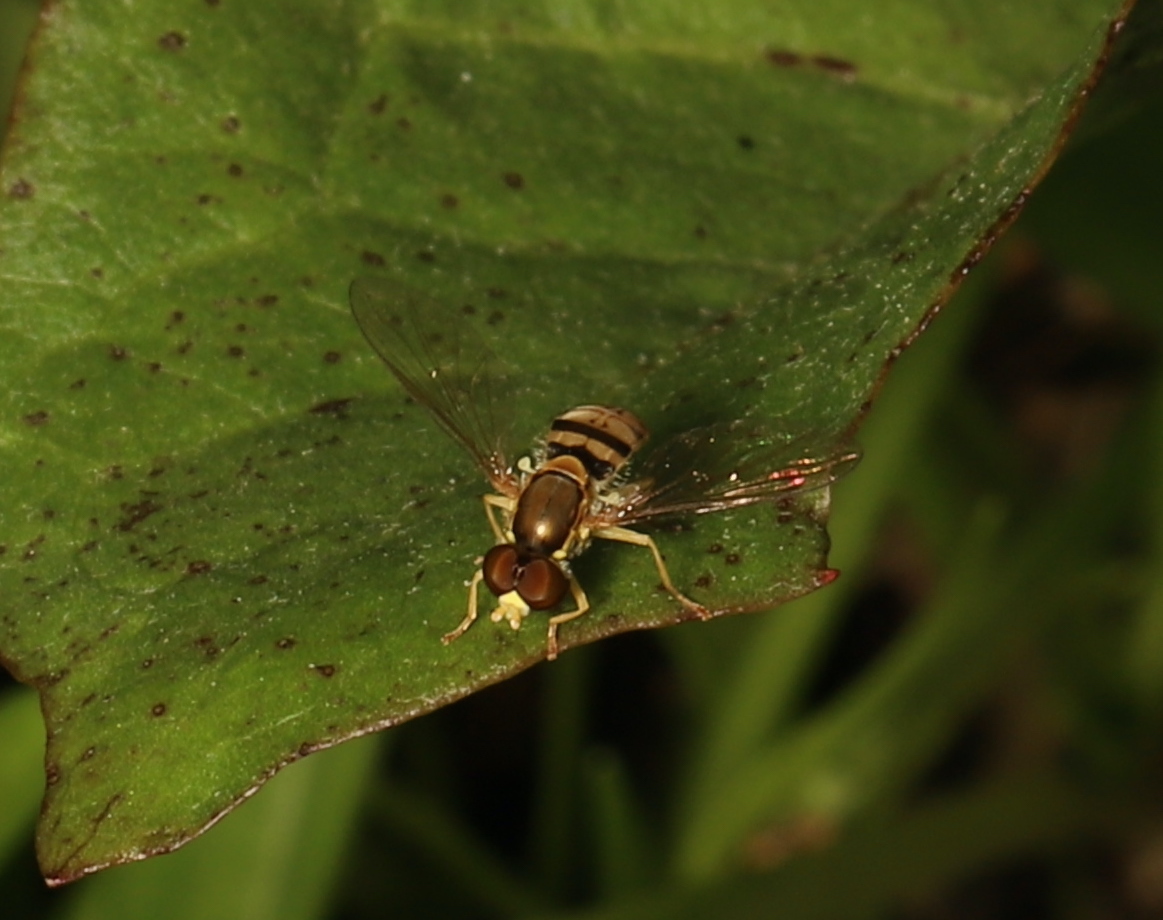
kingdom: Animalia
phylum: Arthropoda
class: Insecta
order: Diptera
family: Syrphidae
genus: Toxomerus
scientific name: Toxomerus marginatus
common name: Syrphid fly
